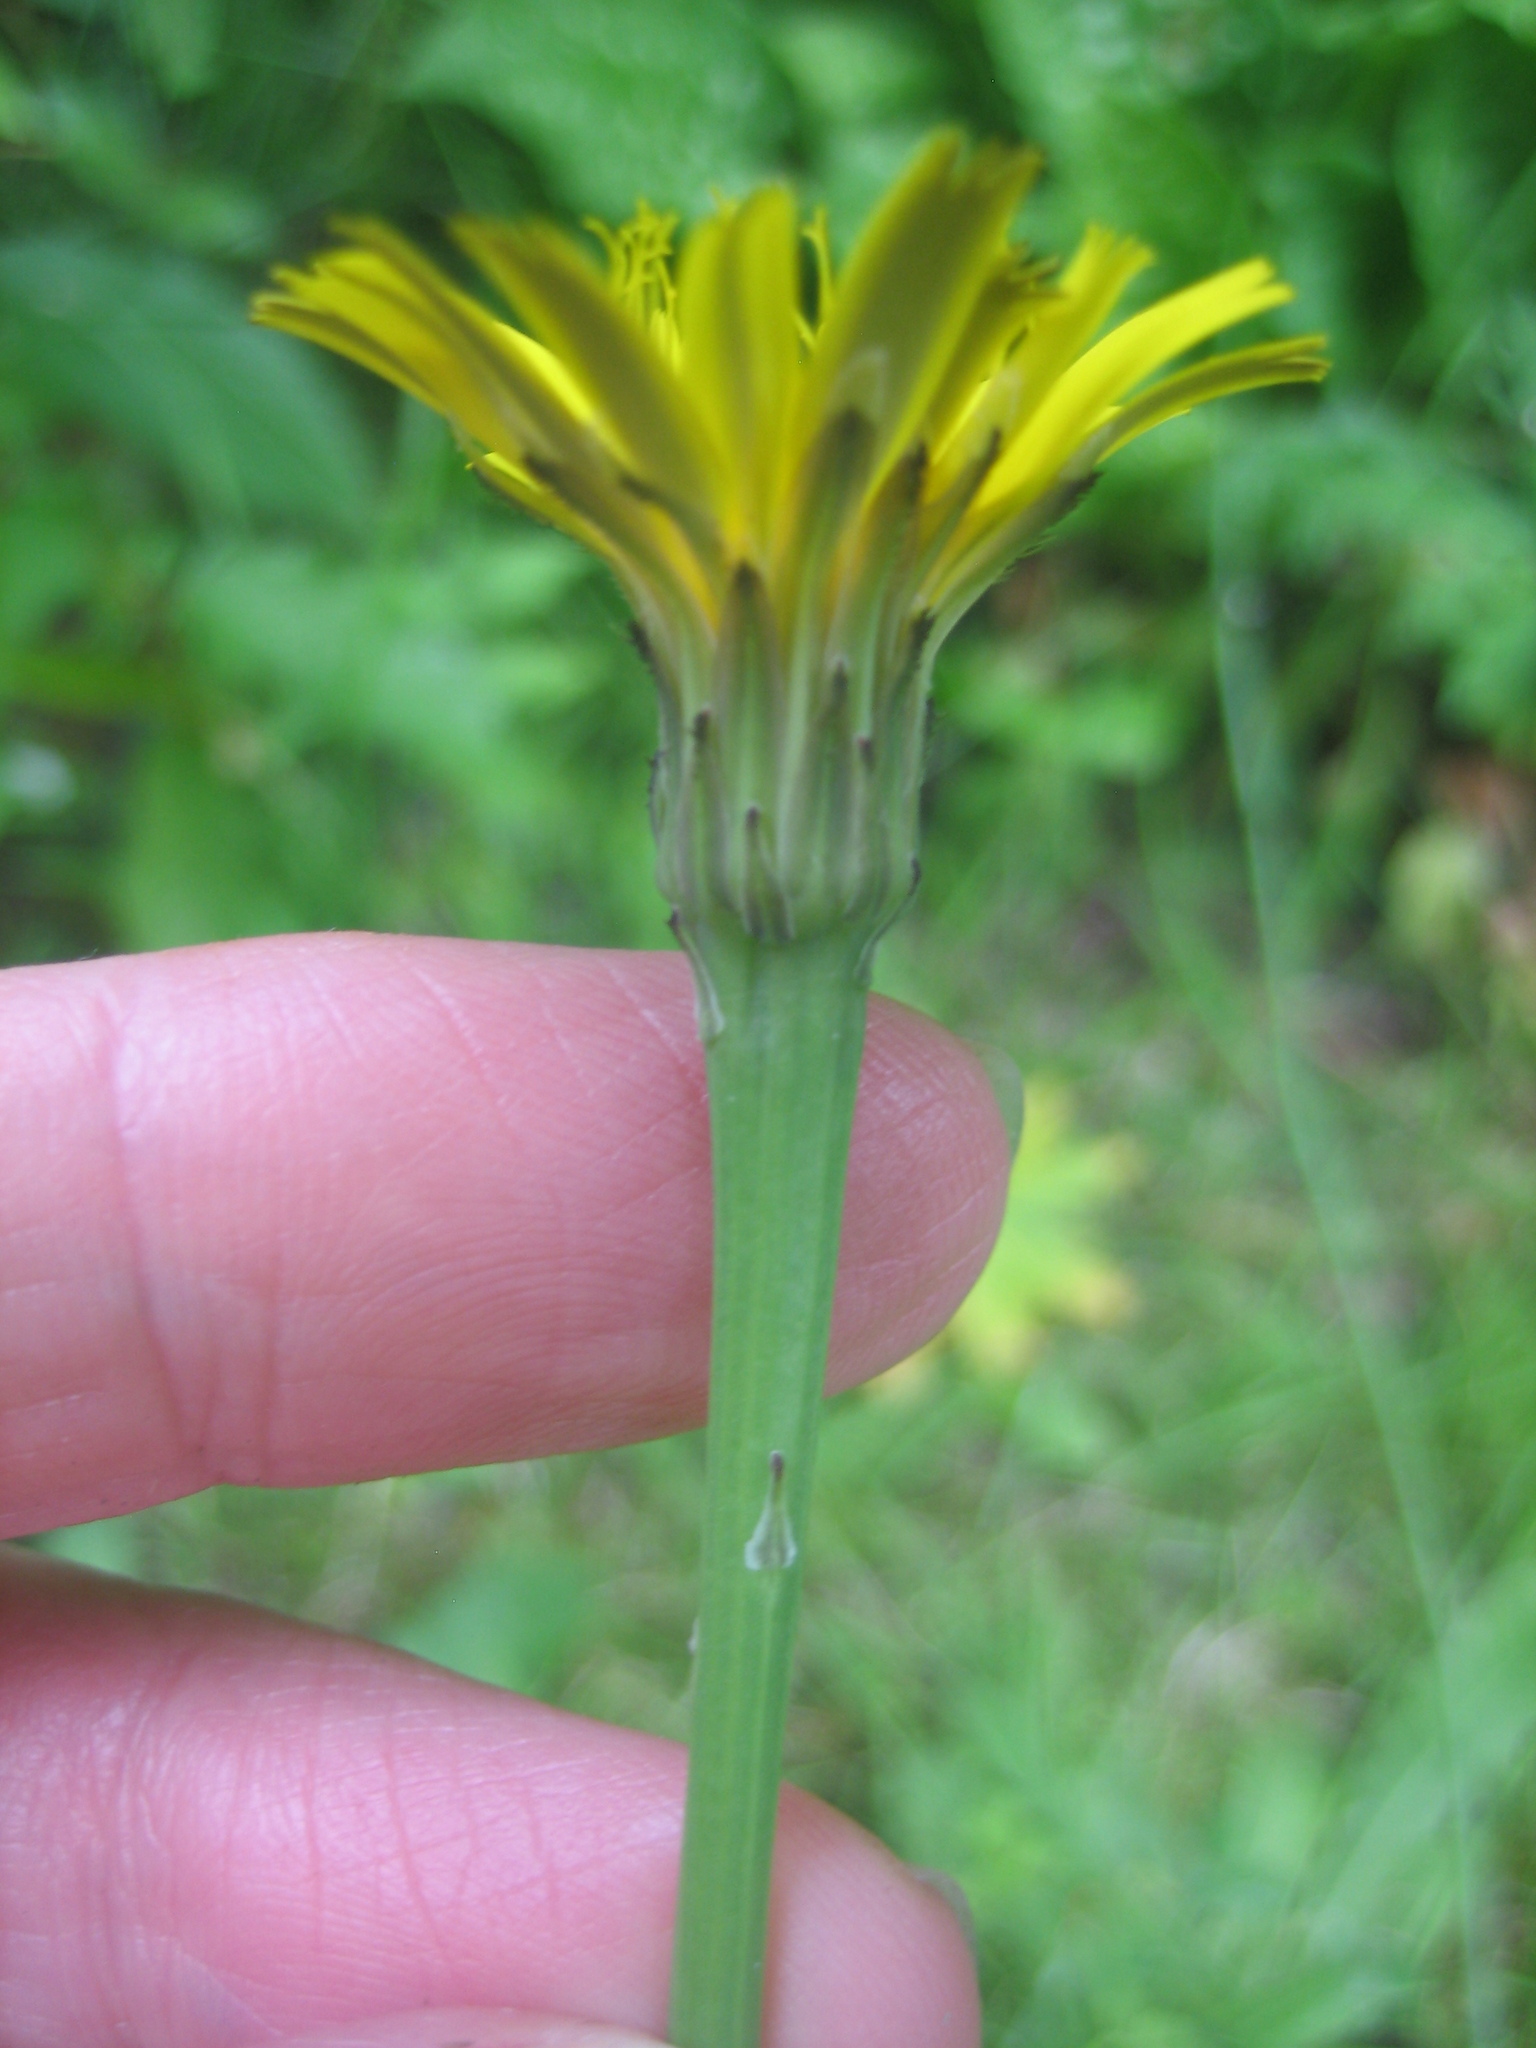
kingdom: Plantae
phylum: Tracheophyta
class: Magnoliopsida
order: Asterales
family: Asteraceae
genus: Hypochaeris
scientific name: Hypochaeris radicata
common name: Flatweed
